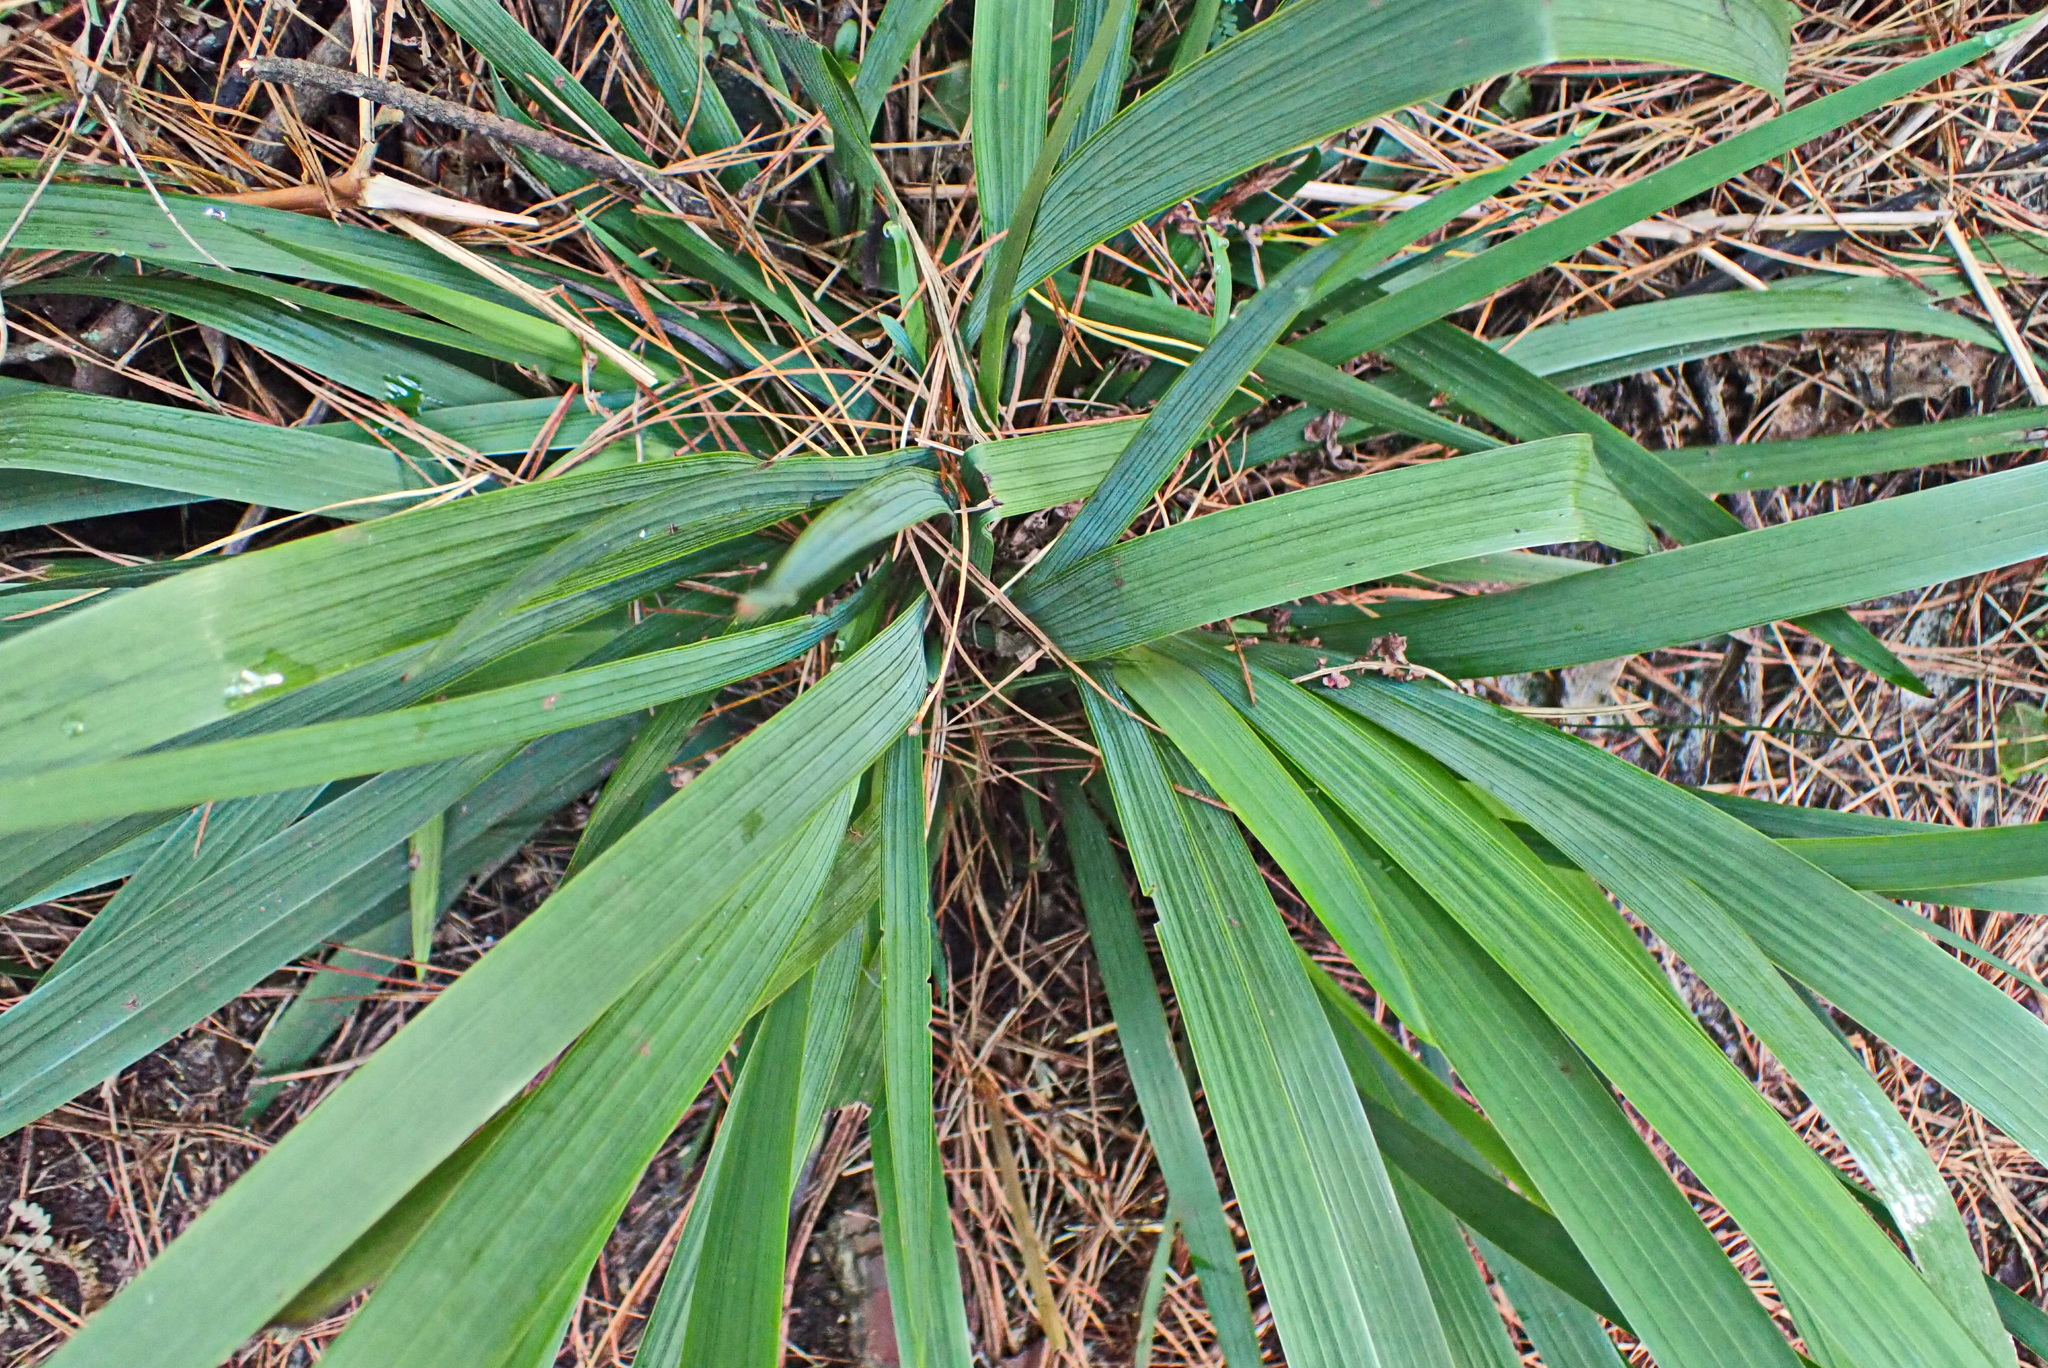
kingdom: Plantae
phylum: Tracheophyta
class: Liliopsida
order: Asparagales
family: Iridaceae
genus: Aristea
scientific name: Aristea ecklonii
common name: Blue corn-lily
